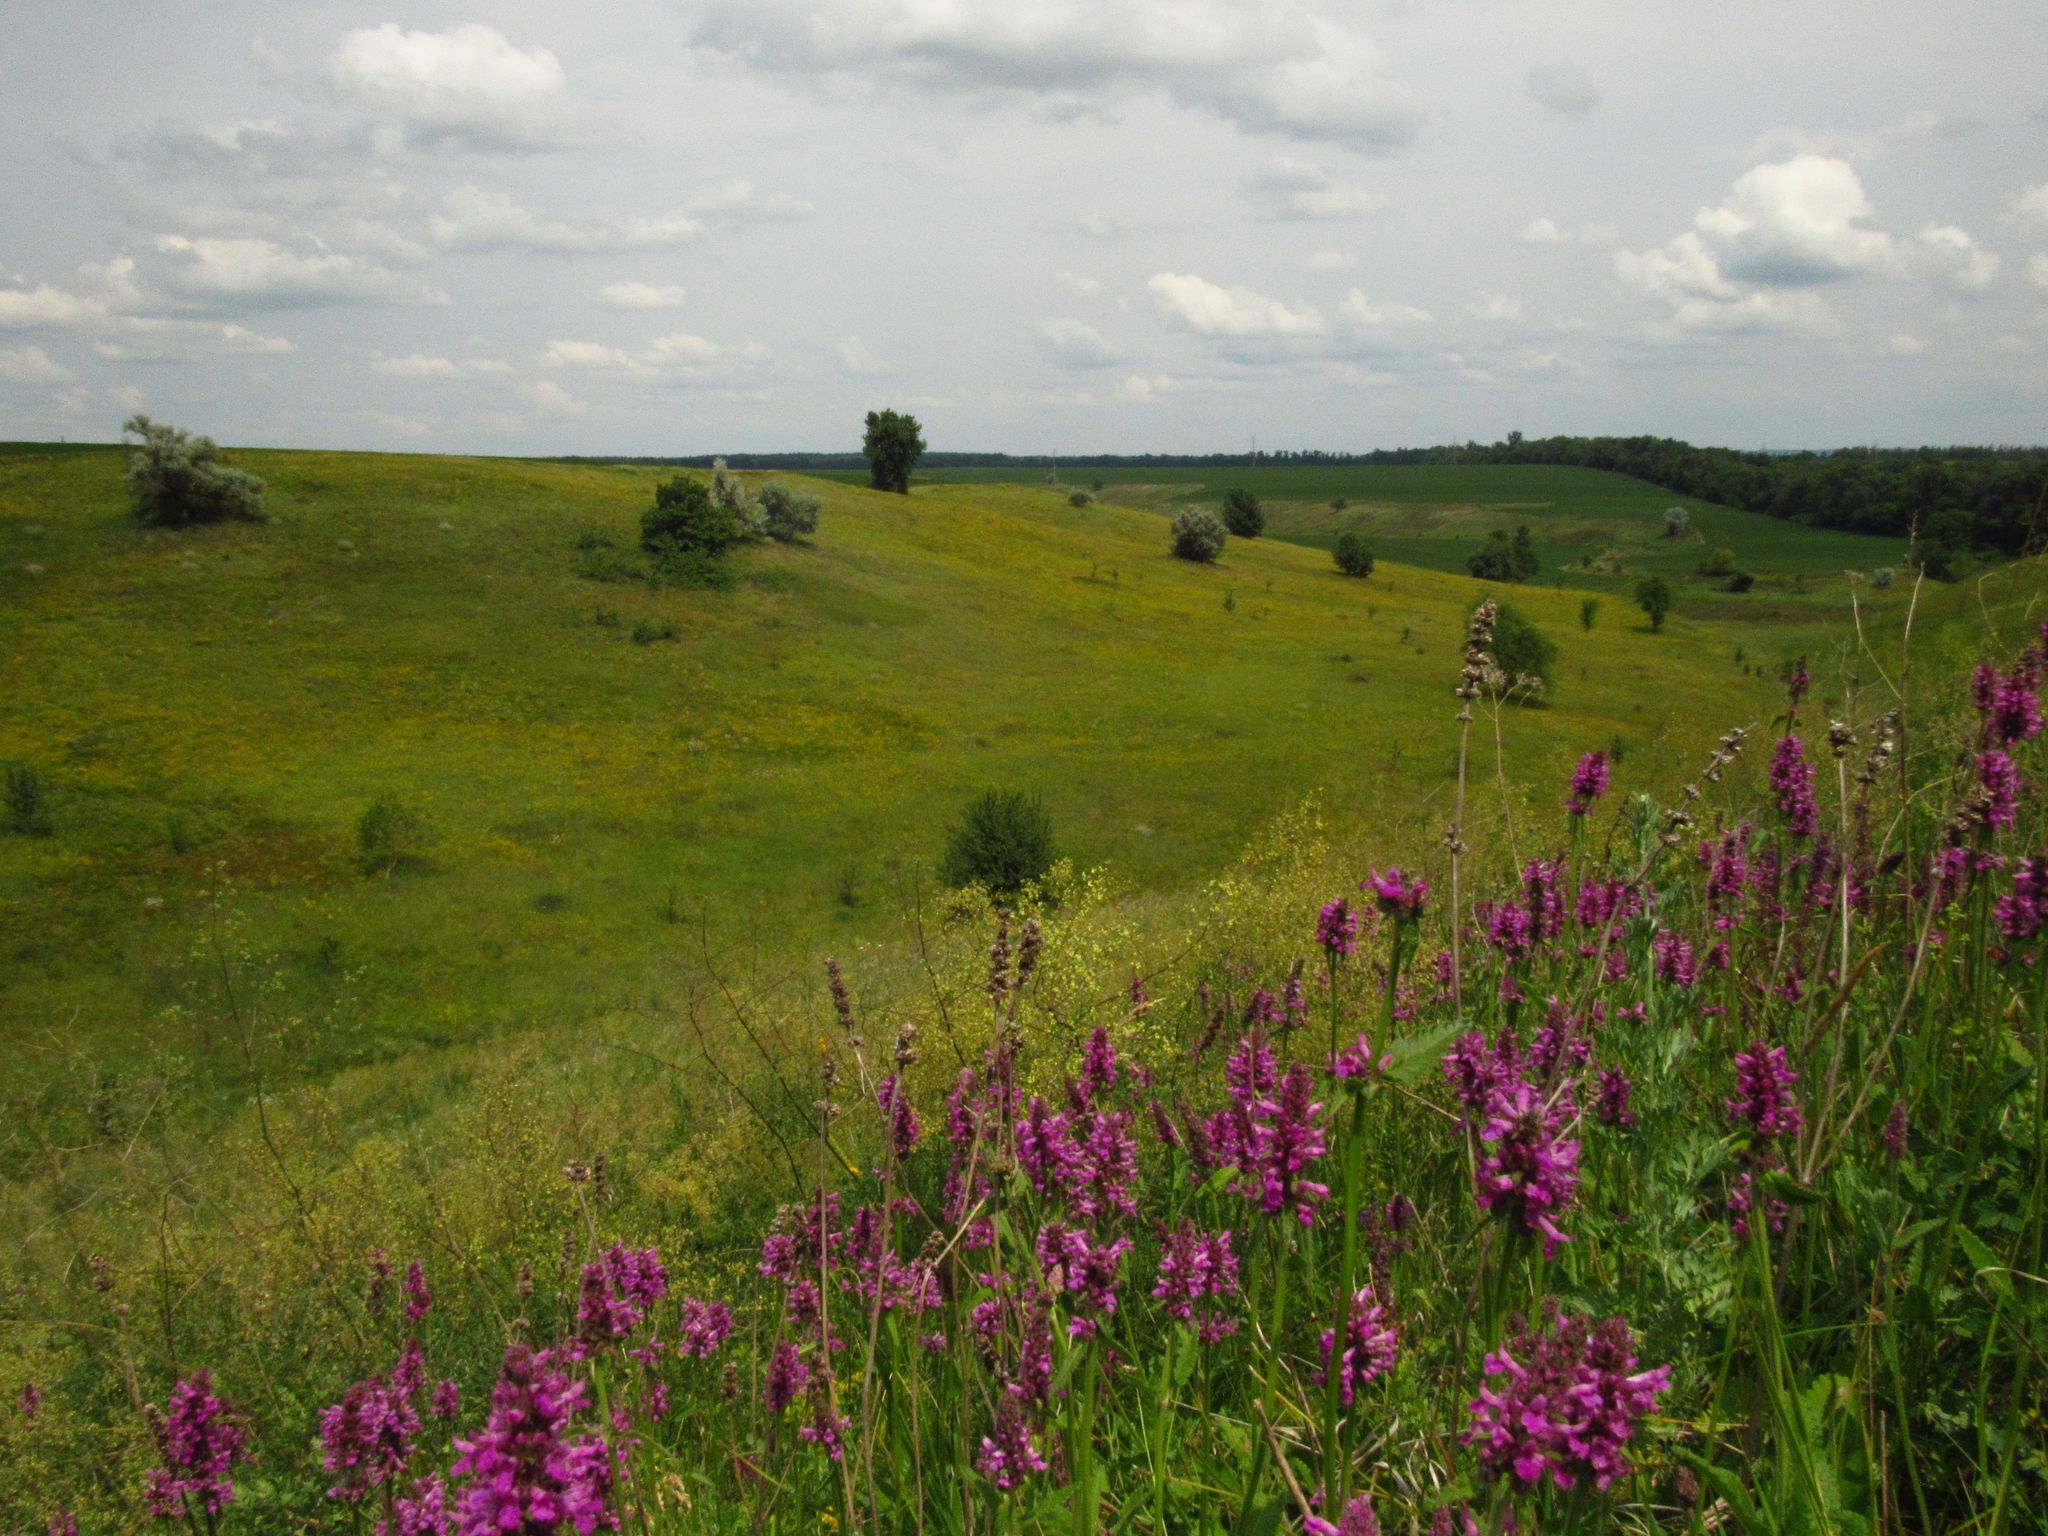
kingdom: Plantae
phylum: Tracheophyta
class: Magnoliopsida
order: Lamiales
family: Lamiaceae
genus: Betonica
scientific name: Betonica officinalis
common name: Bishop's-wort
